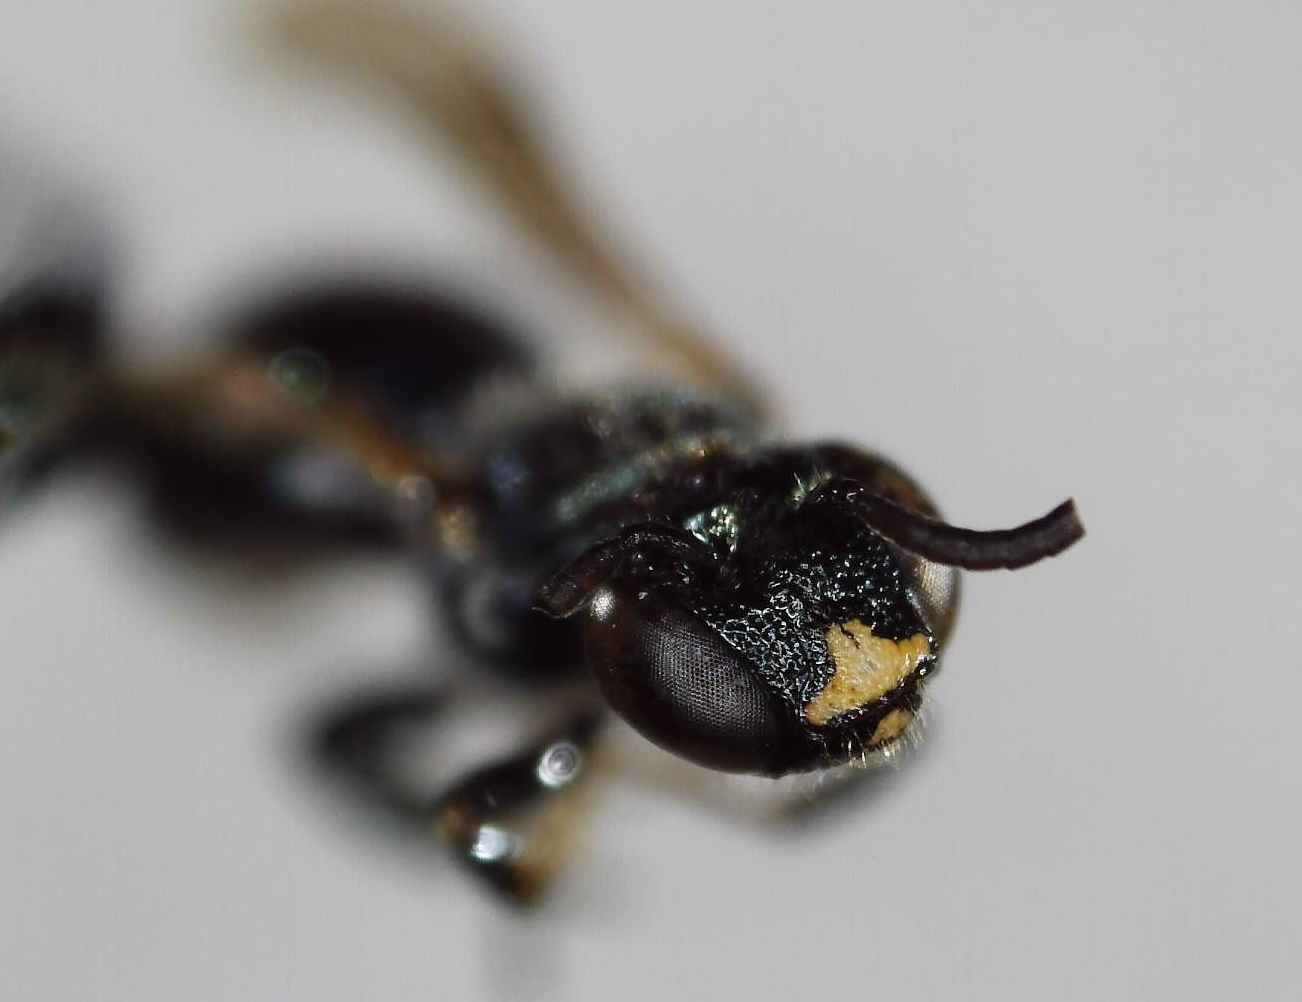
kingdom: Animalia
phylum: Arthropoda
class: Insecta
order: Hymenoptera
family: Apidae
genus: Ceratina
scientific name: Ceratina calcarata
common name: Spurred carpenter bee
